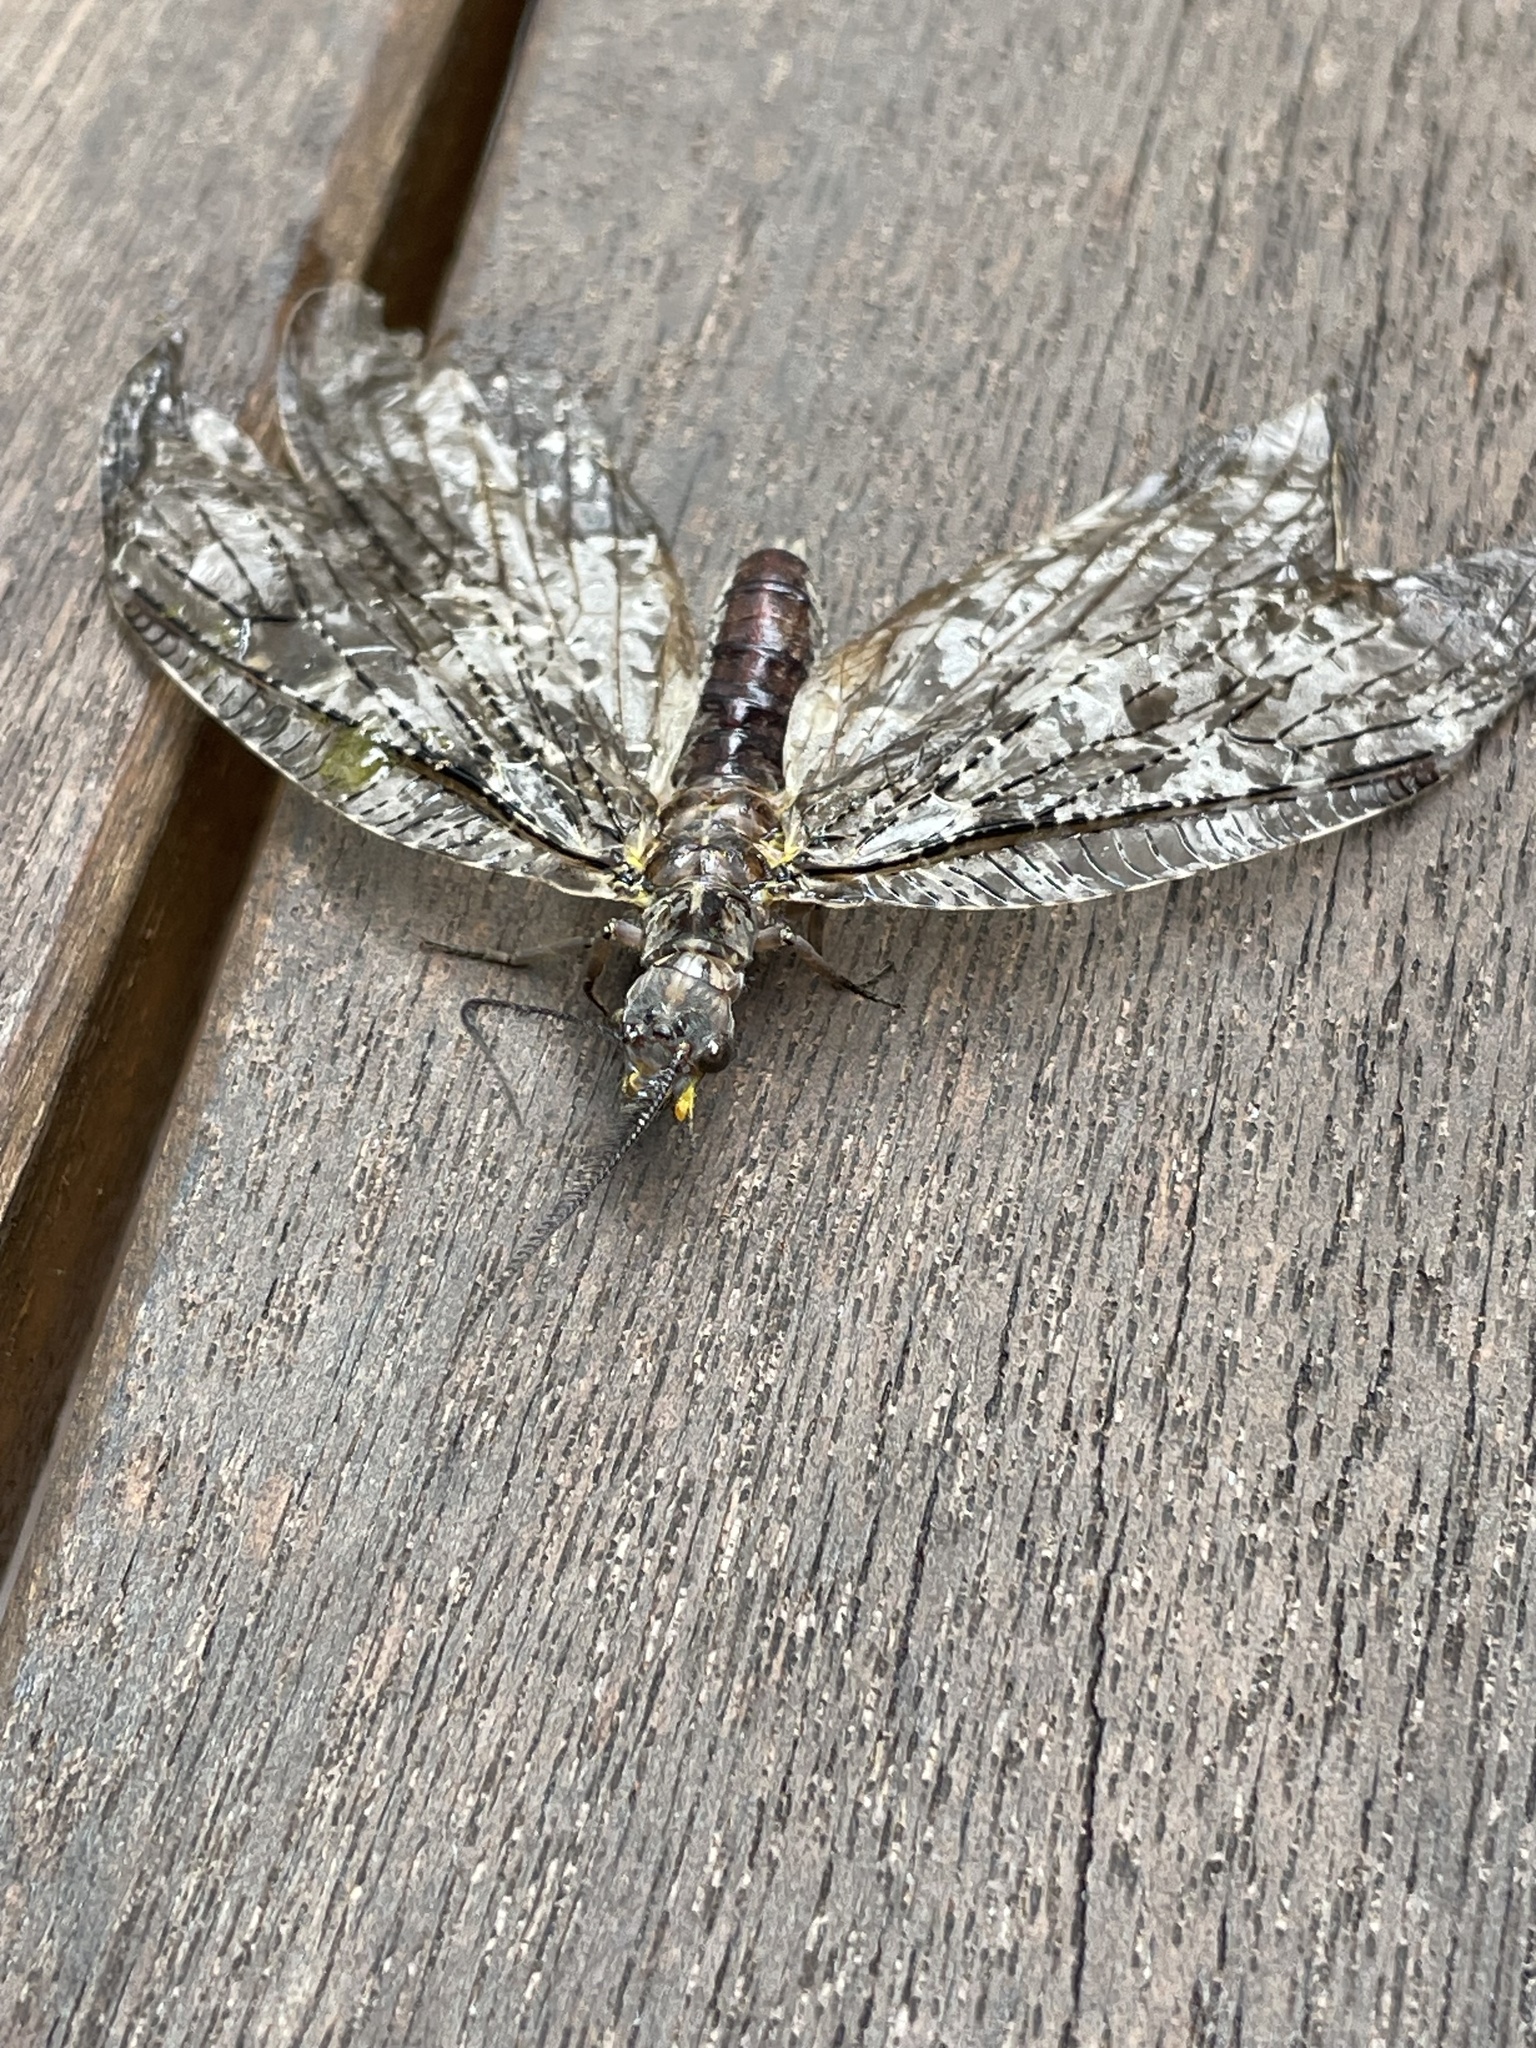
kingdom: Animalia
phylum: Arthropoda
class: Insecta
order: Megaloptera
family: Corydalidae
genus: Chauliodes
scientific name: Chauliodes pectinicornis
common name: Summer fishfly
